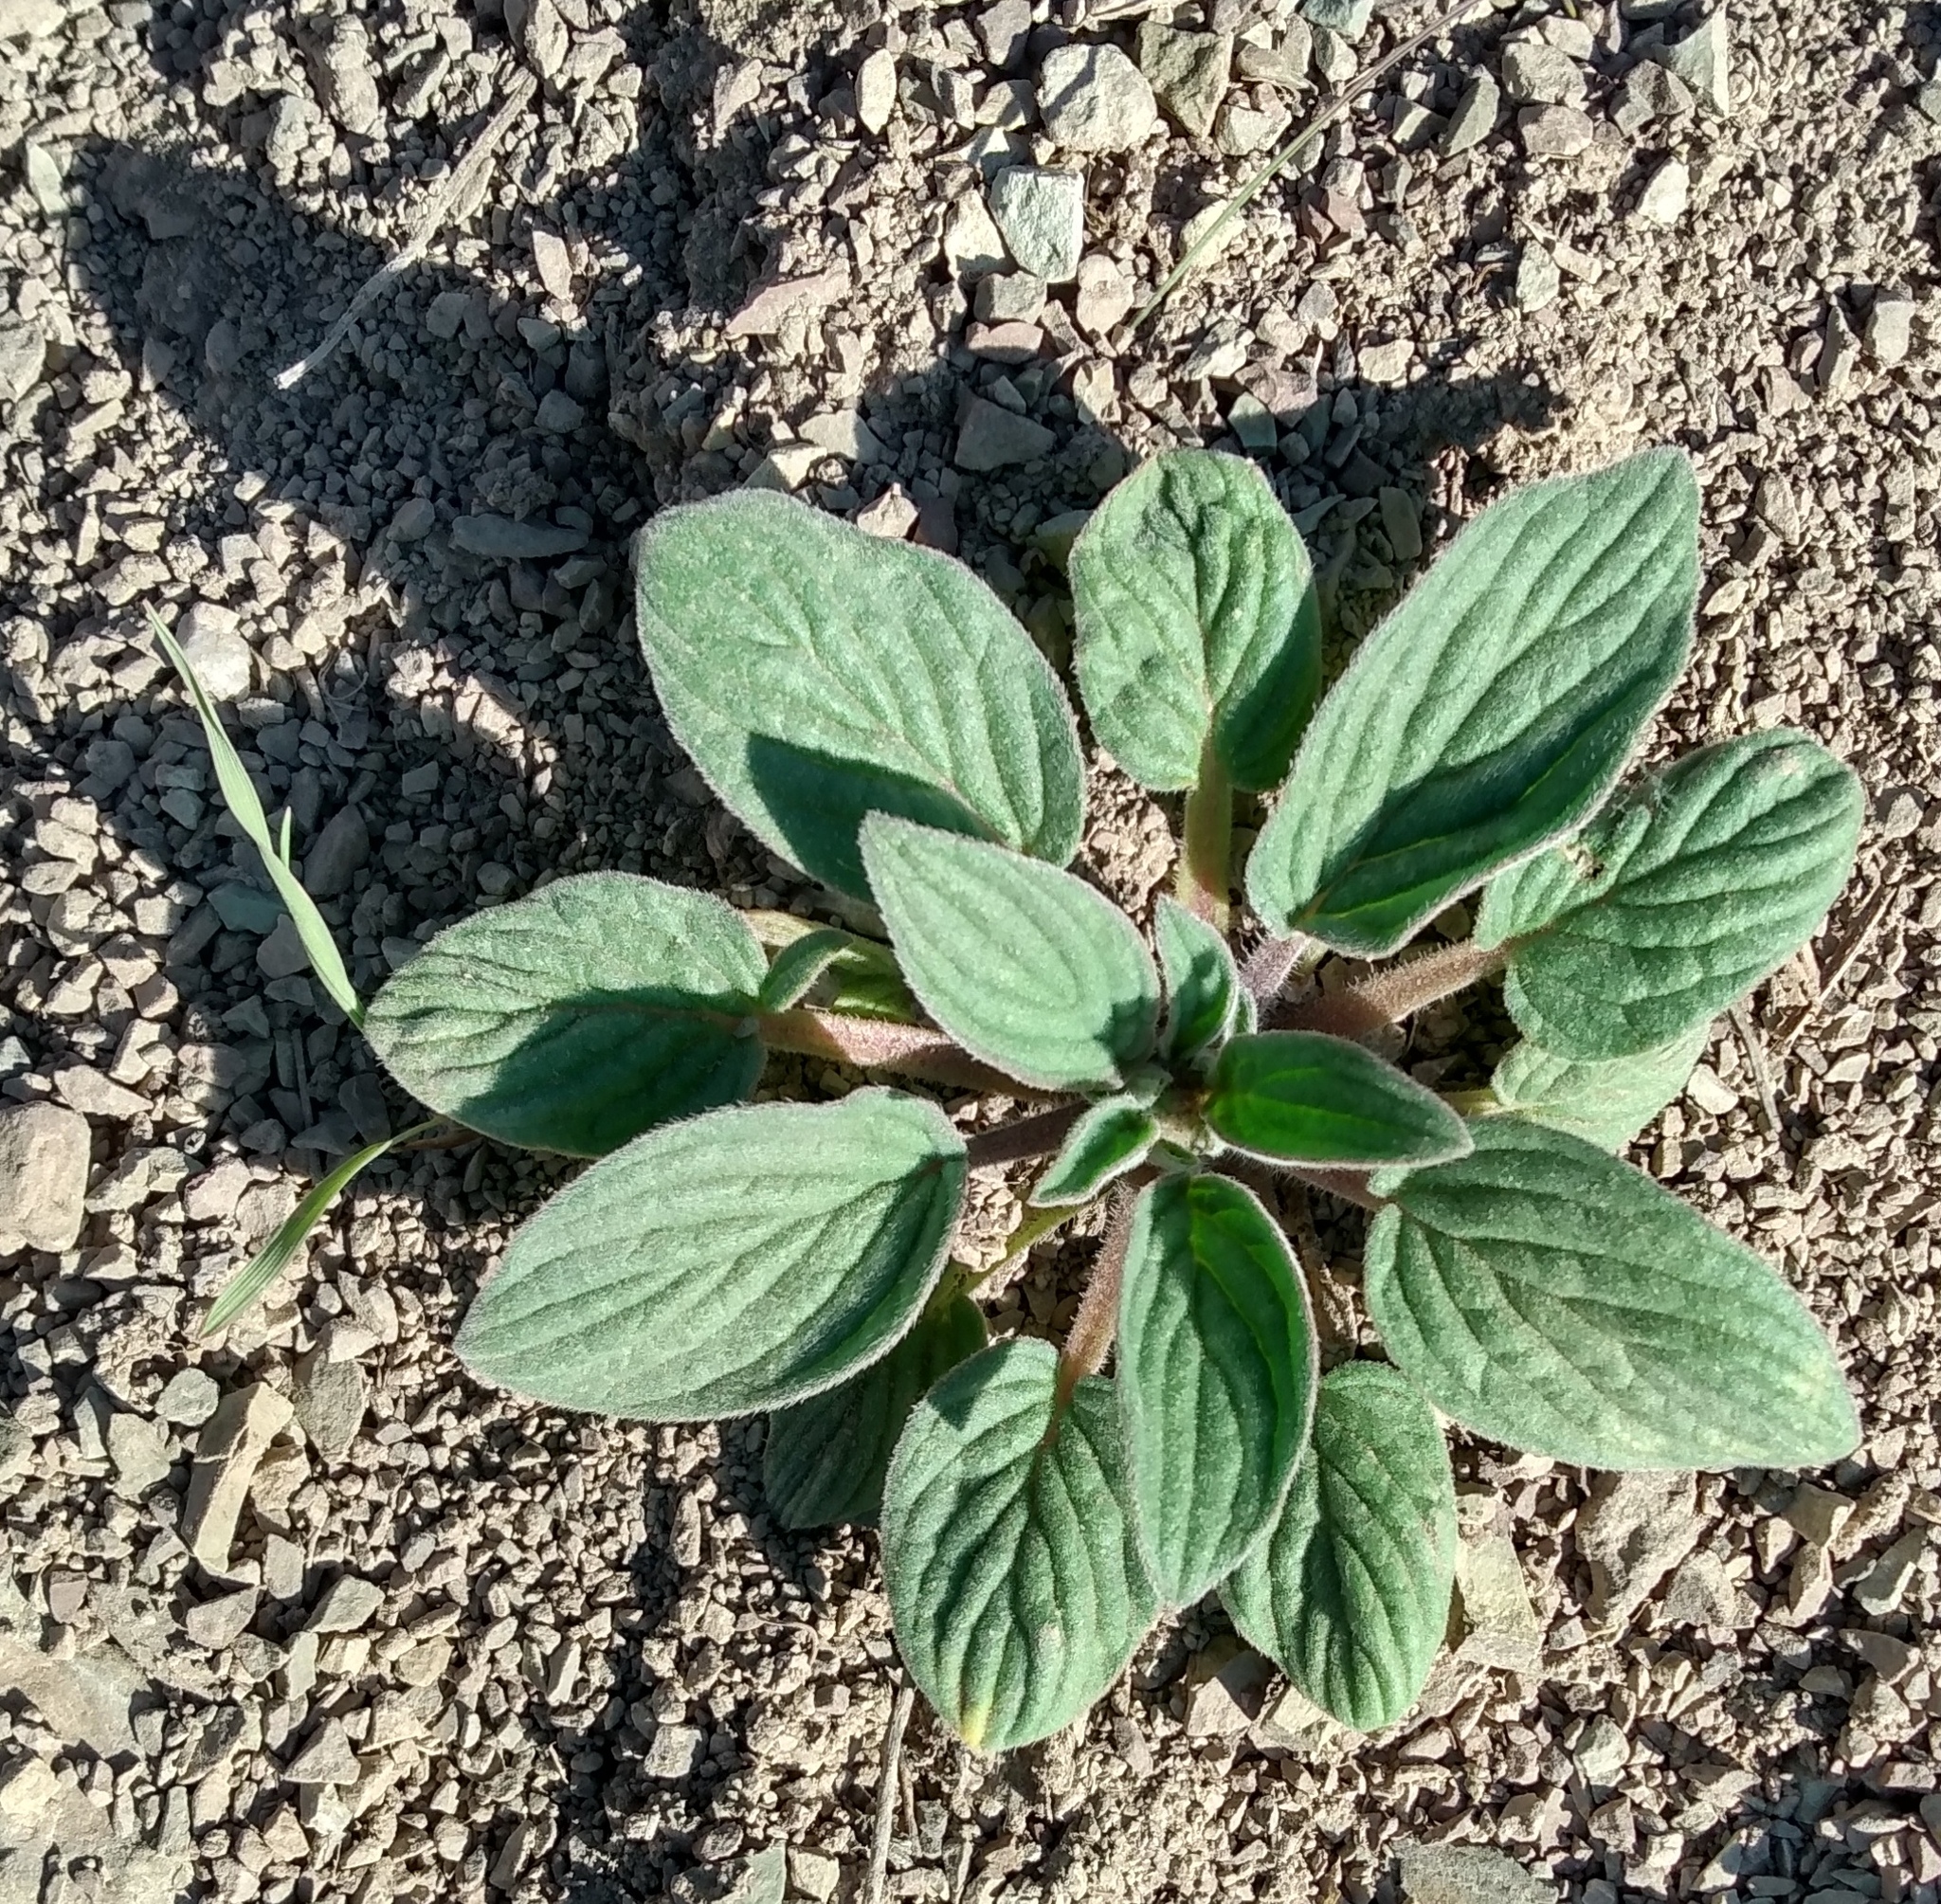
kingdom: Plantae
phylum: Tracheophyta
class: Magnoliopsida
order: Boraginales
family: Hydrophyllaceae
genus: Phacelia
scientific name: Phacelia hastata
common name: Silver-leaved phacelia
